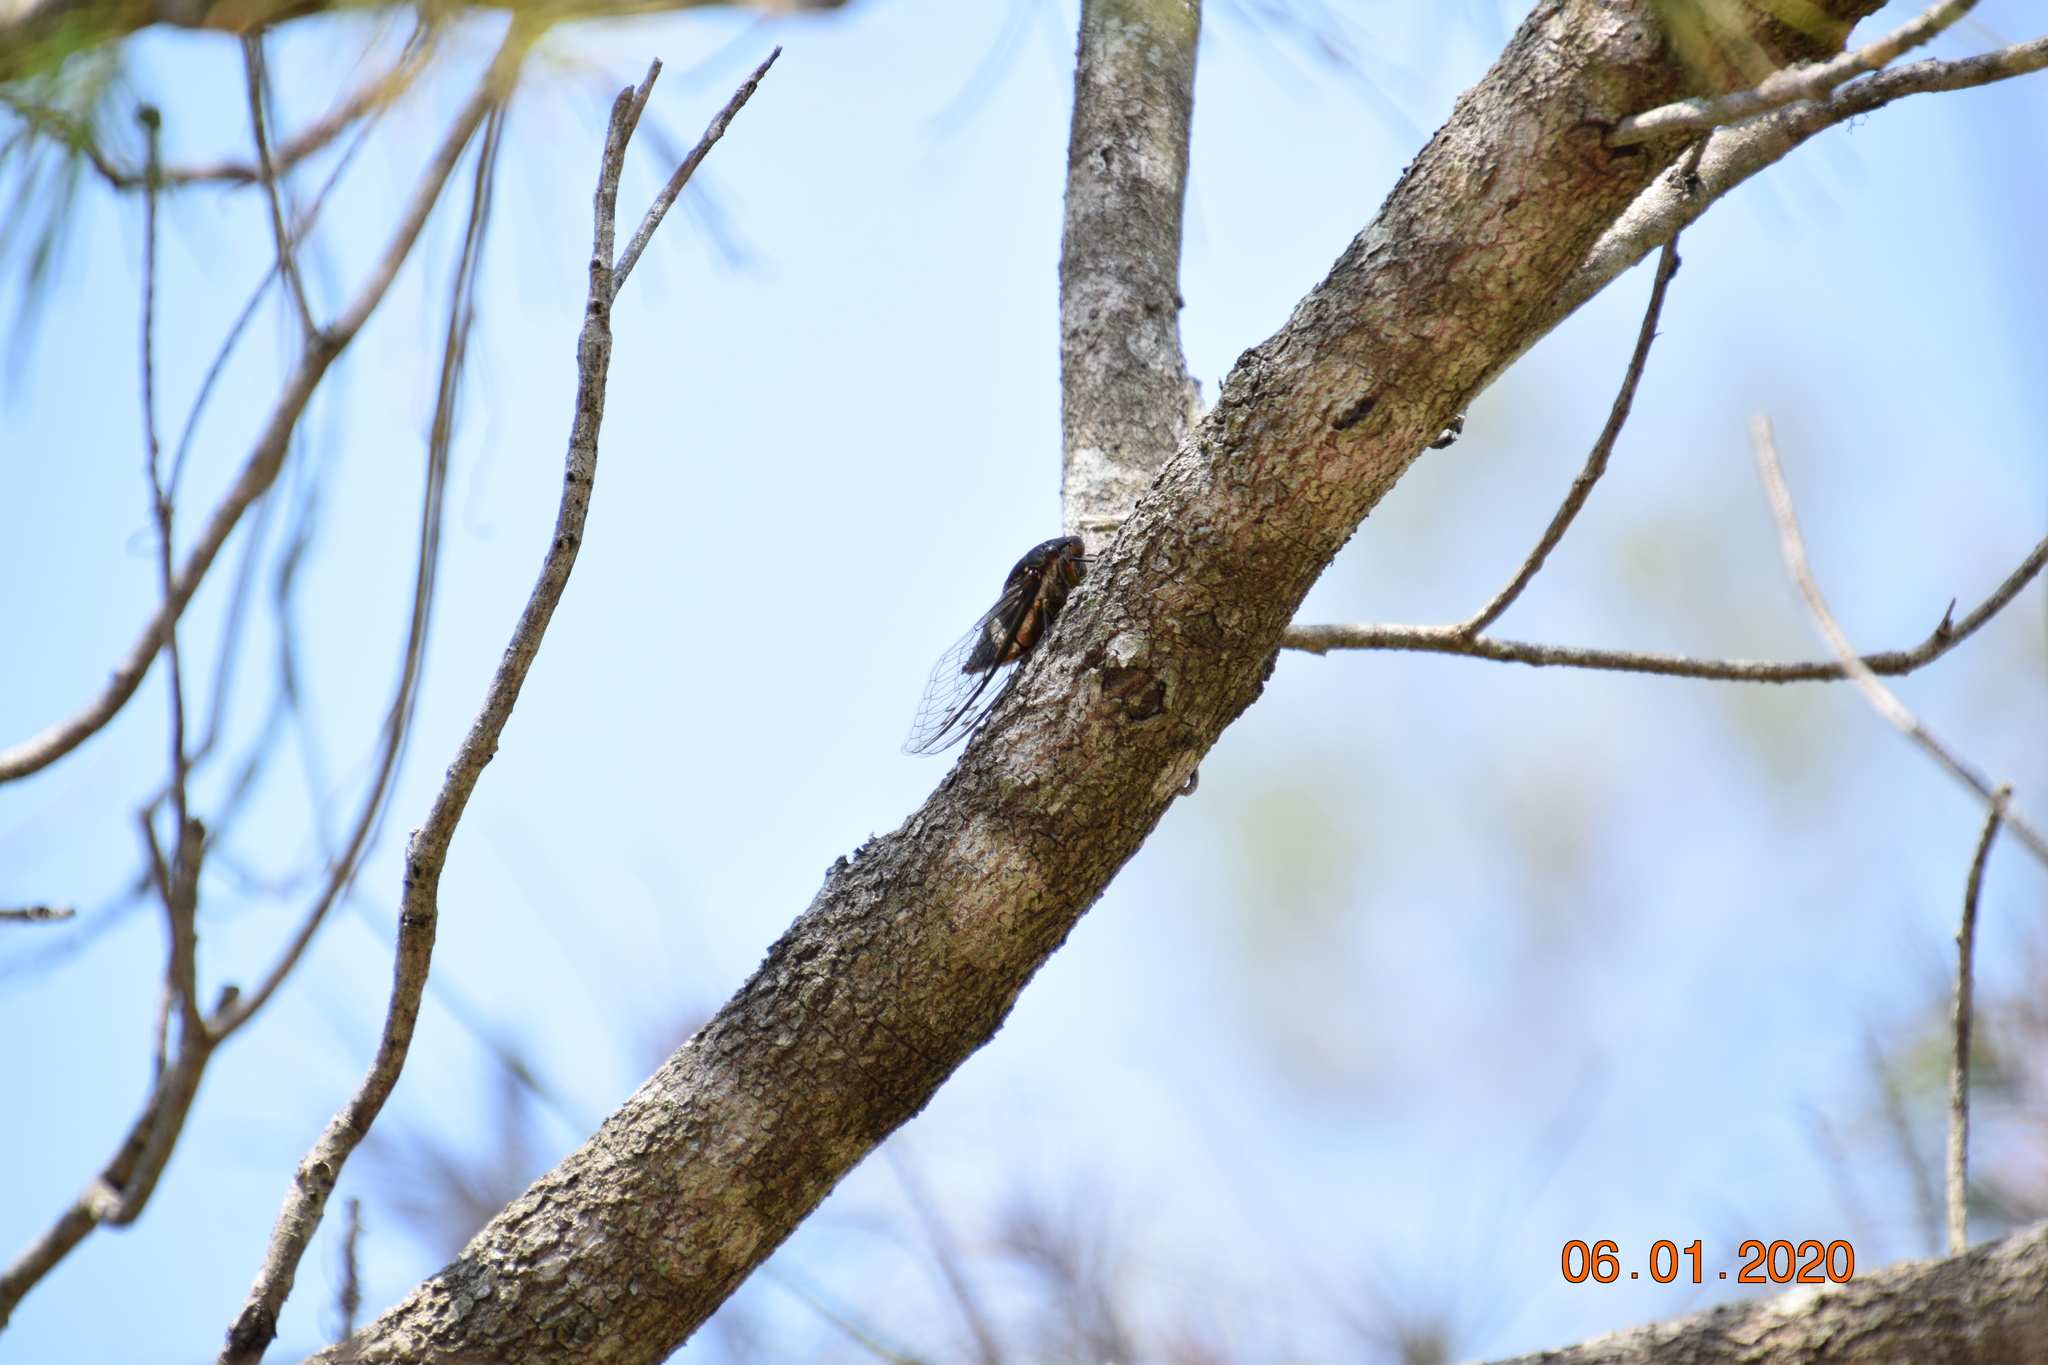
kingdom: Animalia
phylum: Arthropoda
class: Insecta
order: Hemiptera
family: Cicadidae
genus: Psaltoda
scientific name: Psaltoda plaga
